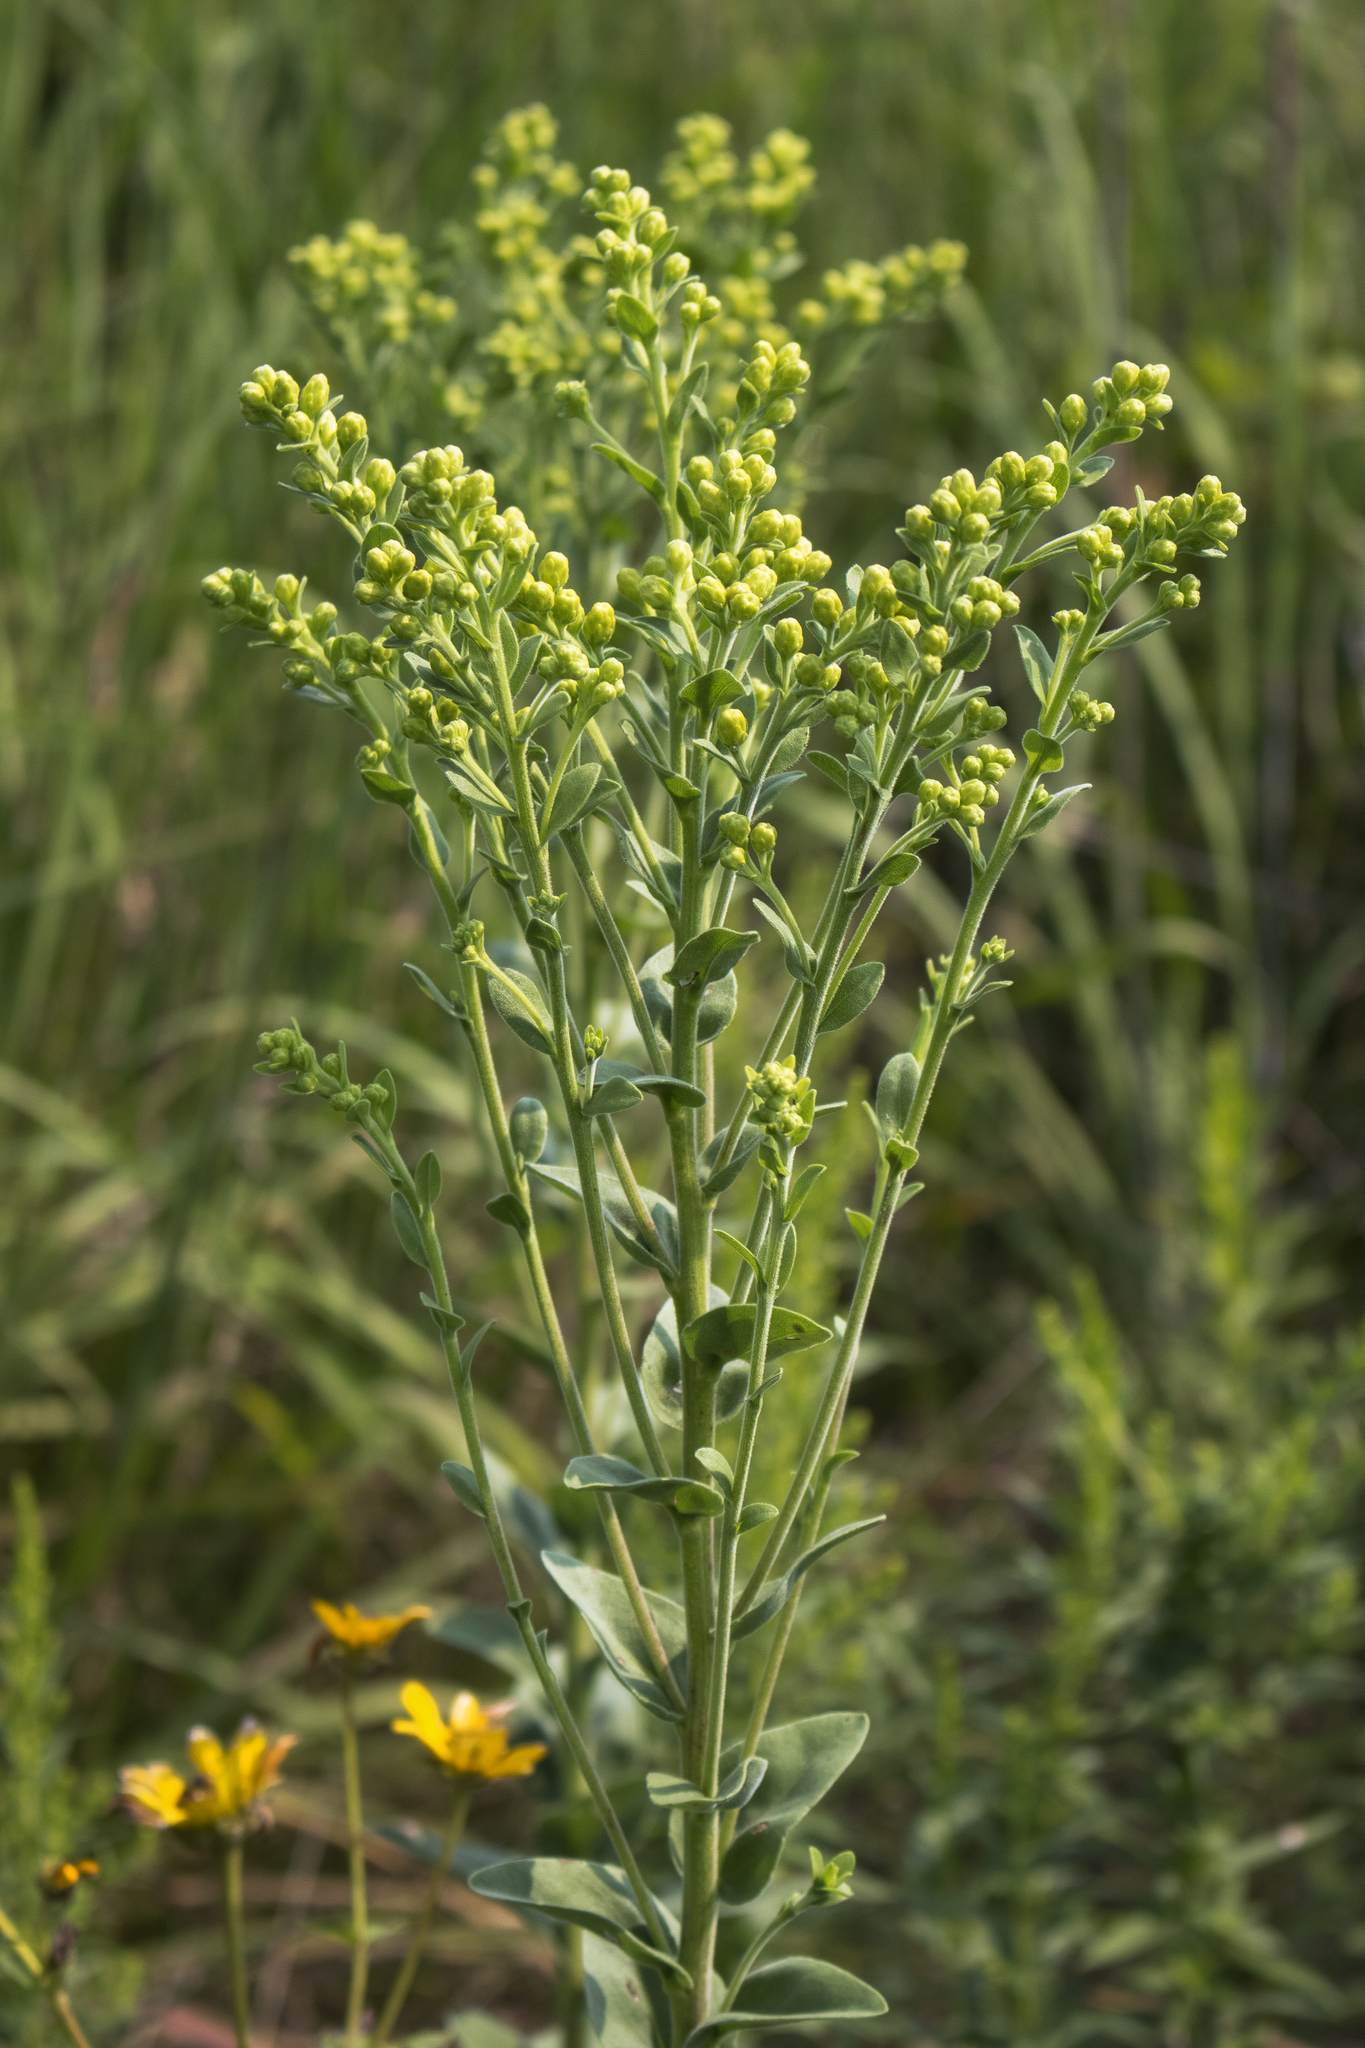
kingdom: Plantae
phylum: Tracheophyta
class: Magnoliopsida
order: Asterales
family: Asteraceae
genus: Solidago
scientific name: Solidago rigida
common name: Rigid goldenrod
